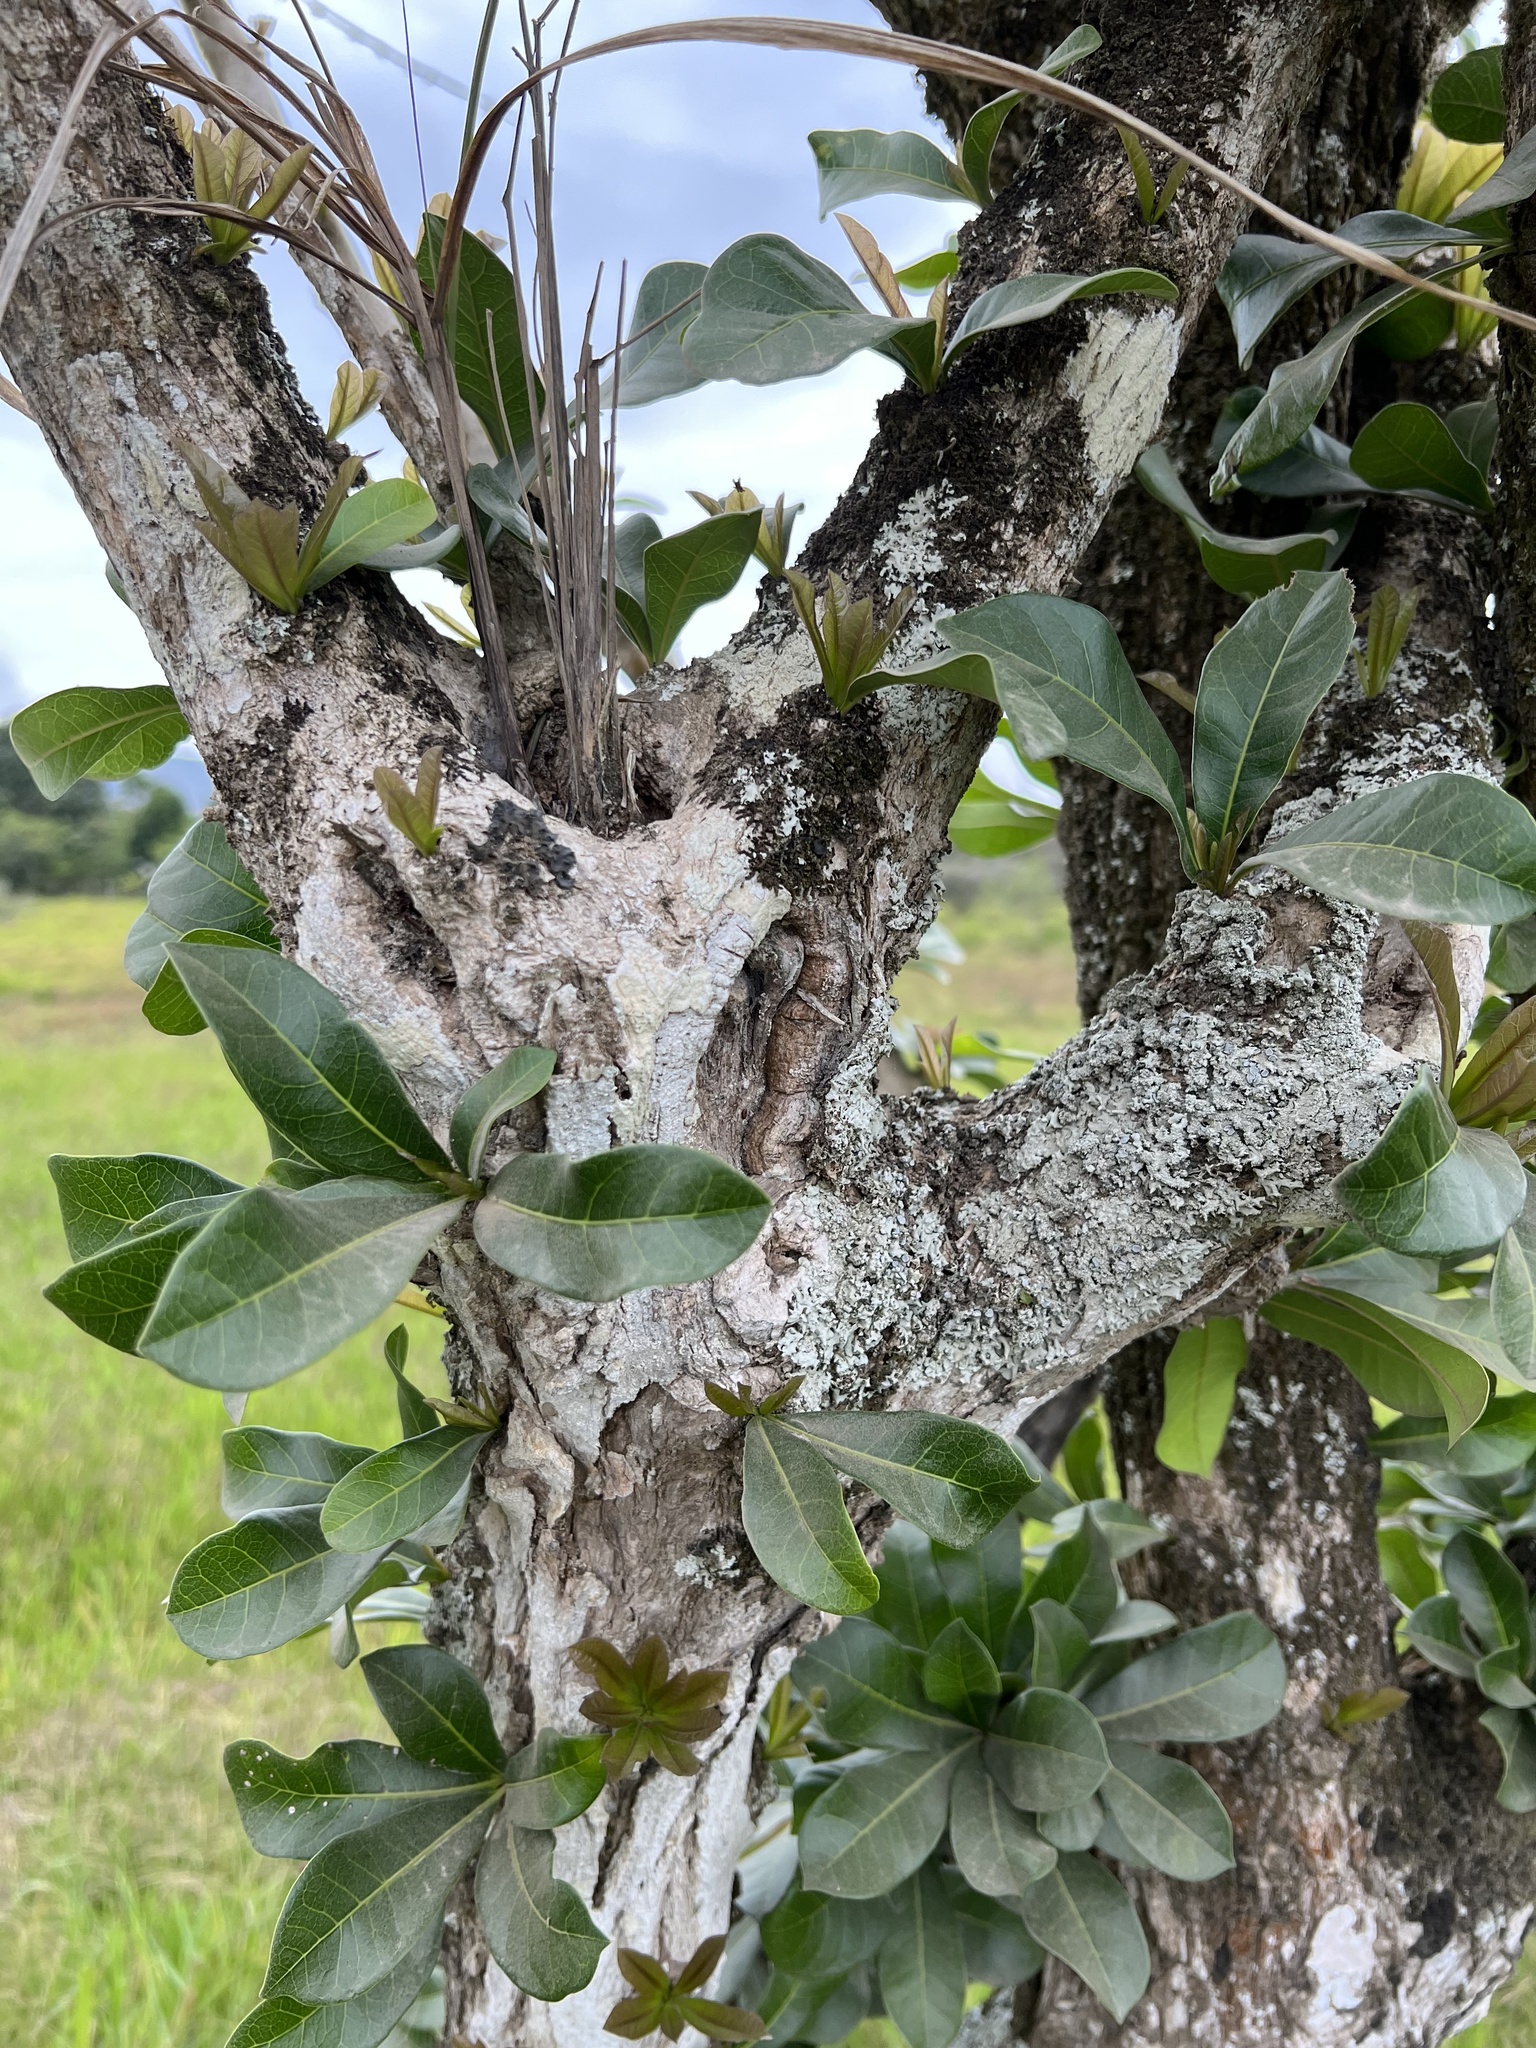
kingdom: Plantae
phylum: Tracheophyta
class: Magnoliopsida
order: Lamiales
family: Bignoniaceae
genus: Crescentia
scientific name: Crescentia cujete
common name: Calabash
